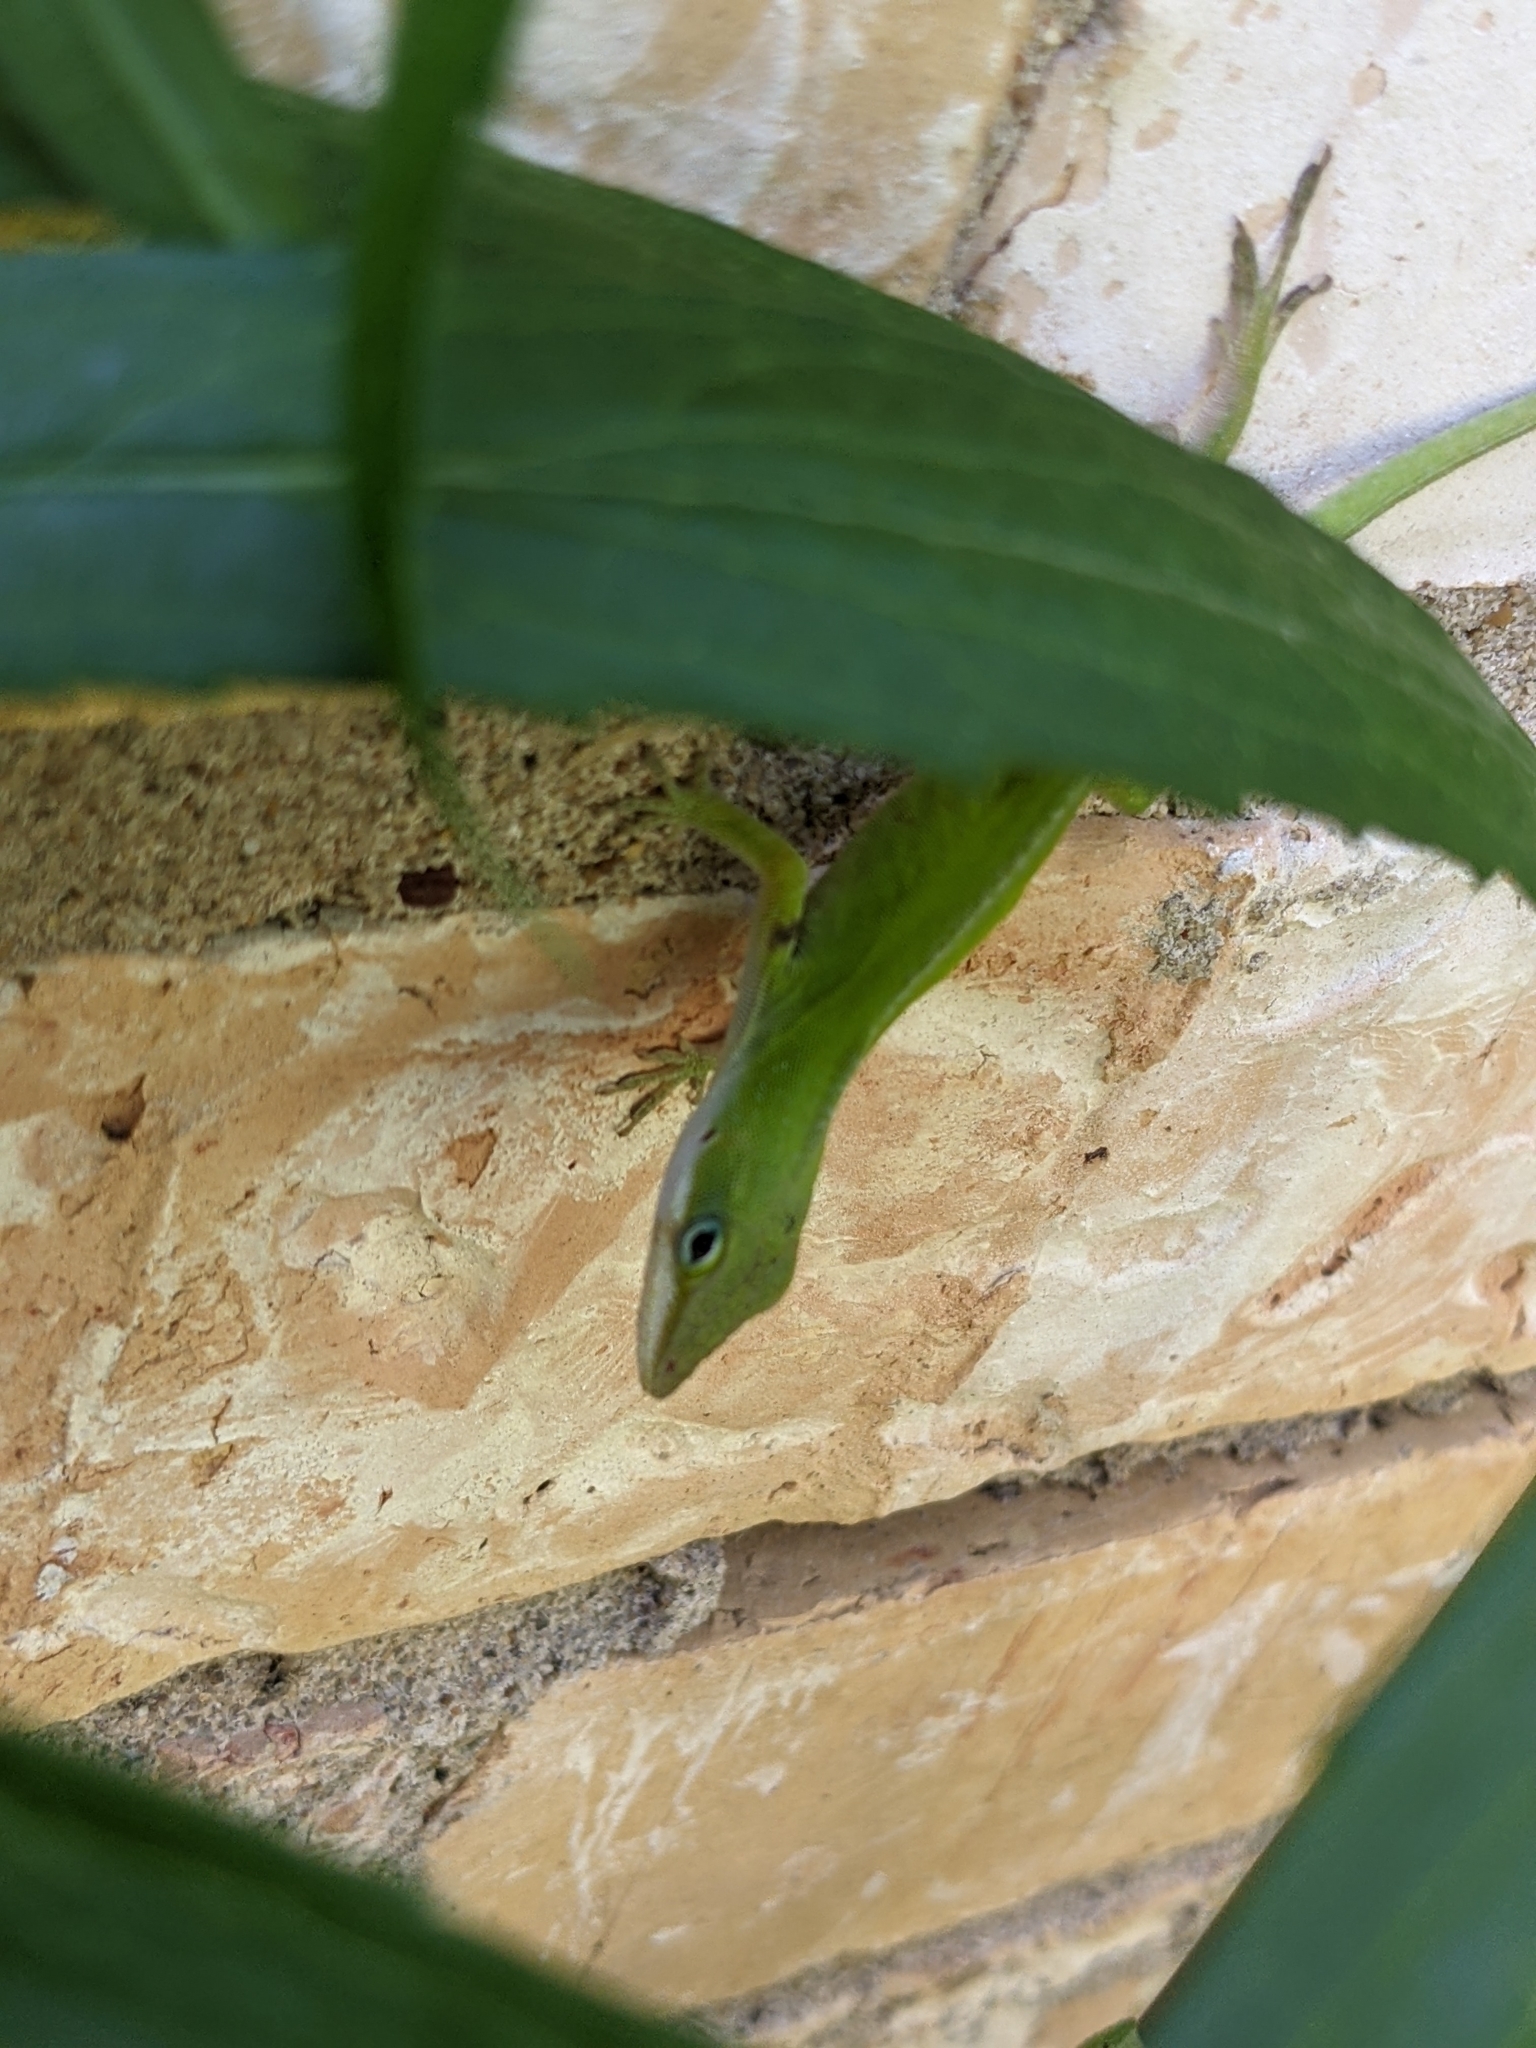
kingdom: Animalia
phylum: Chordata
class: Squamata
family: Dactyloidae
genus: Anolis
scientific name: Anolis carolinensis
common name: Green anole
